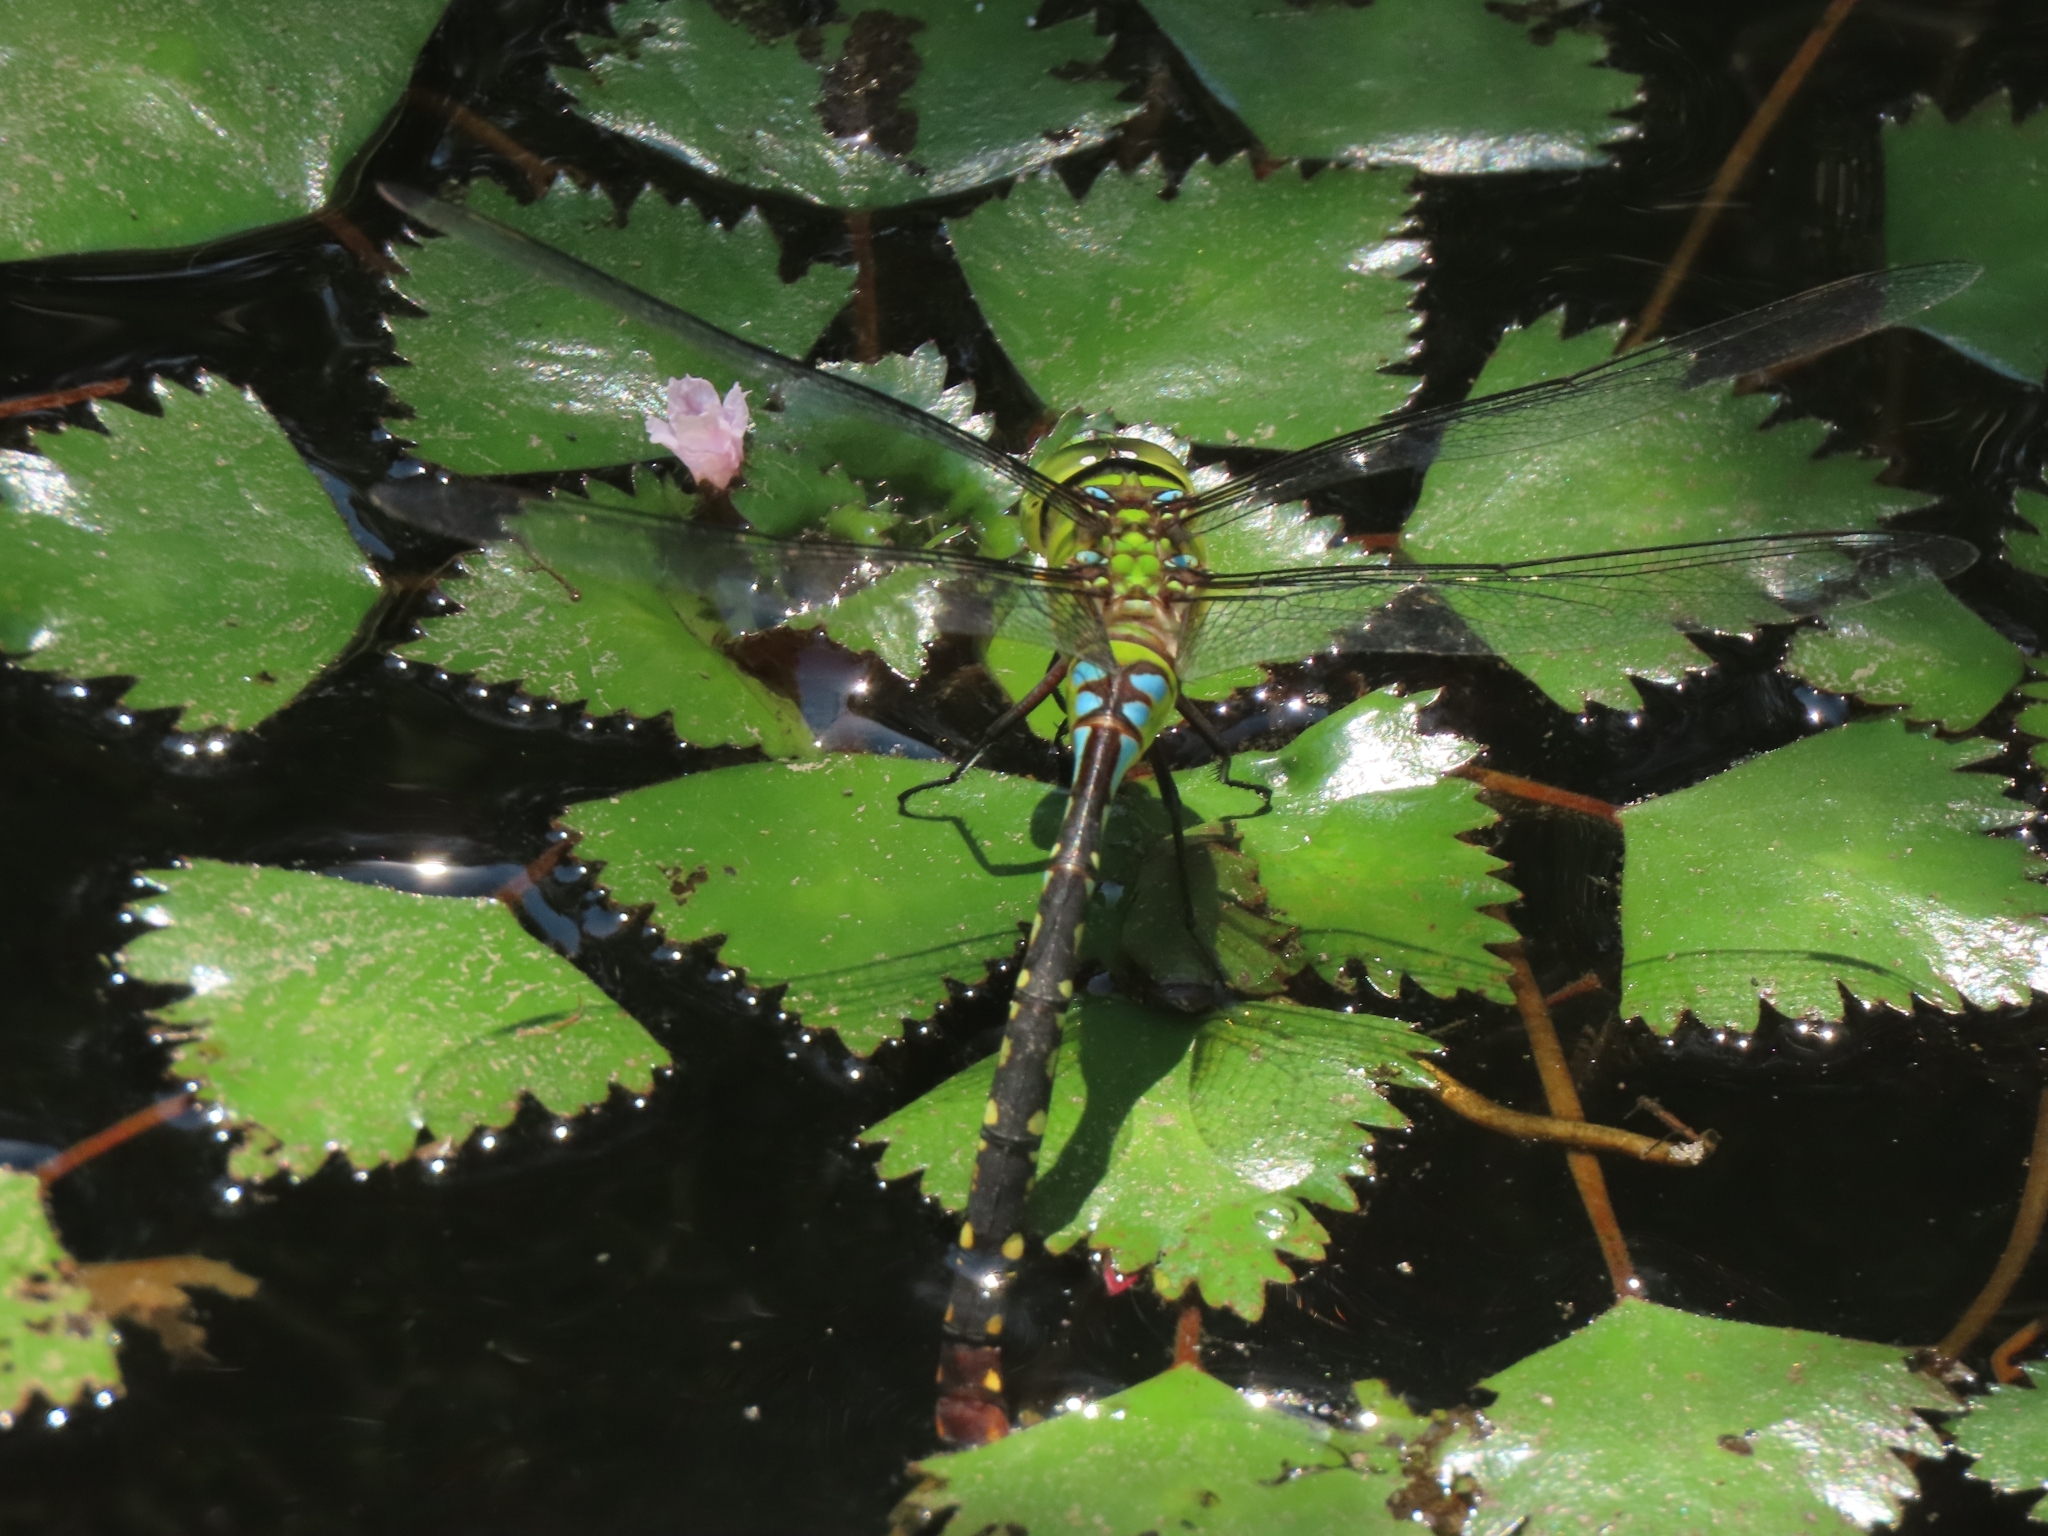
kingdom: Animalia
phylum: Arthropoda
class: Insecta
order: Odonata
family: Aeshnidae
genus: Anax
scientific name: Anax panybeus
